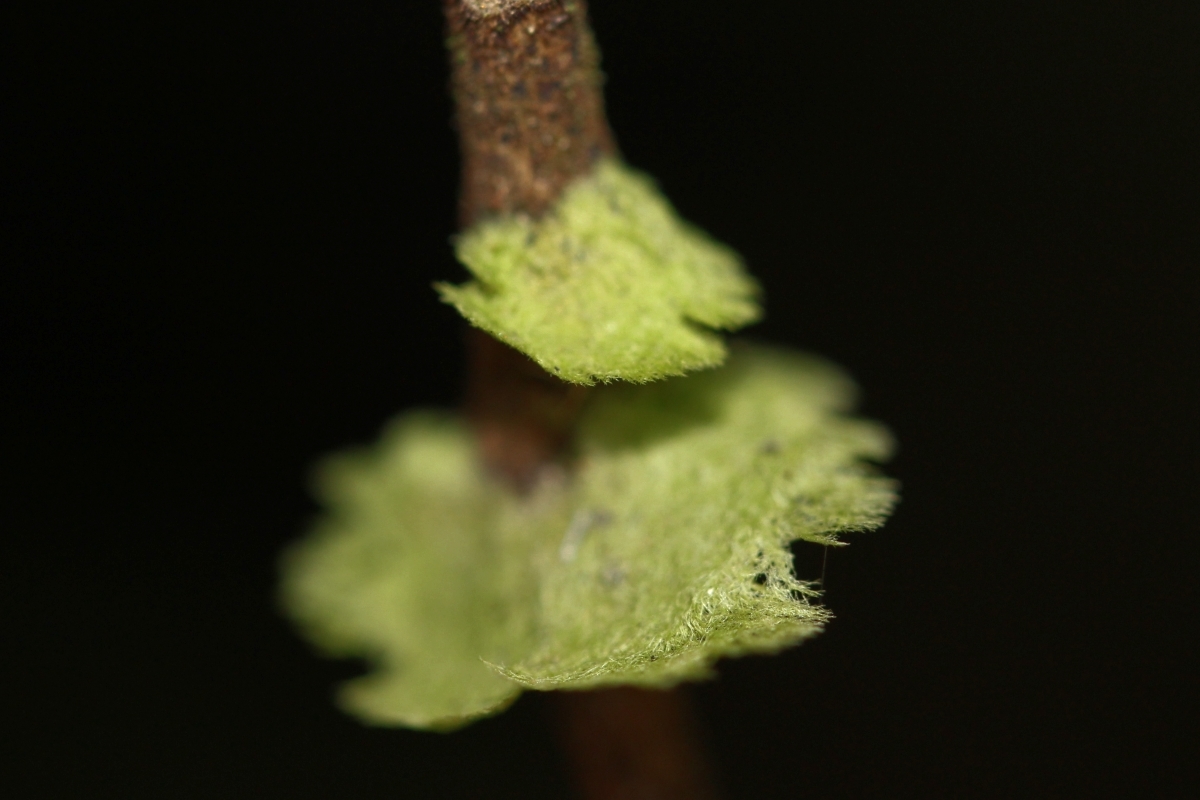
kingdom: Fungi
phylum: Ascomycota
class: Lecanoromycetes
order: Ostropales
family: Coenogoniaceae
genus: Coenogonium
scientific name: Coenogonium
